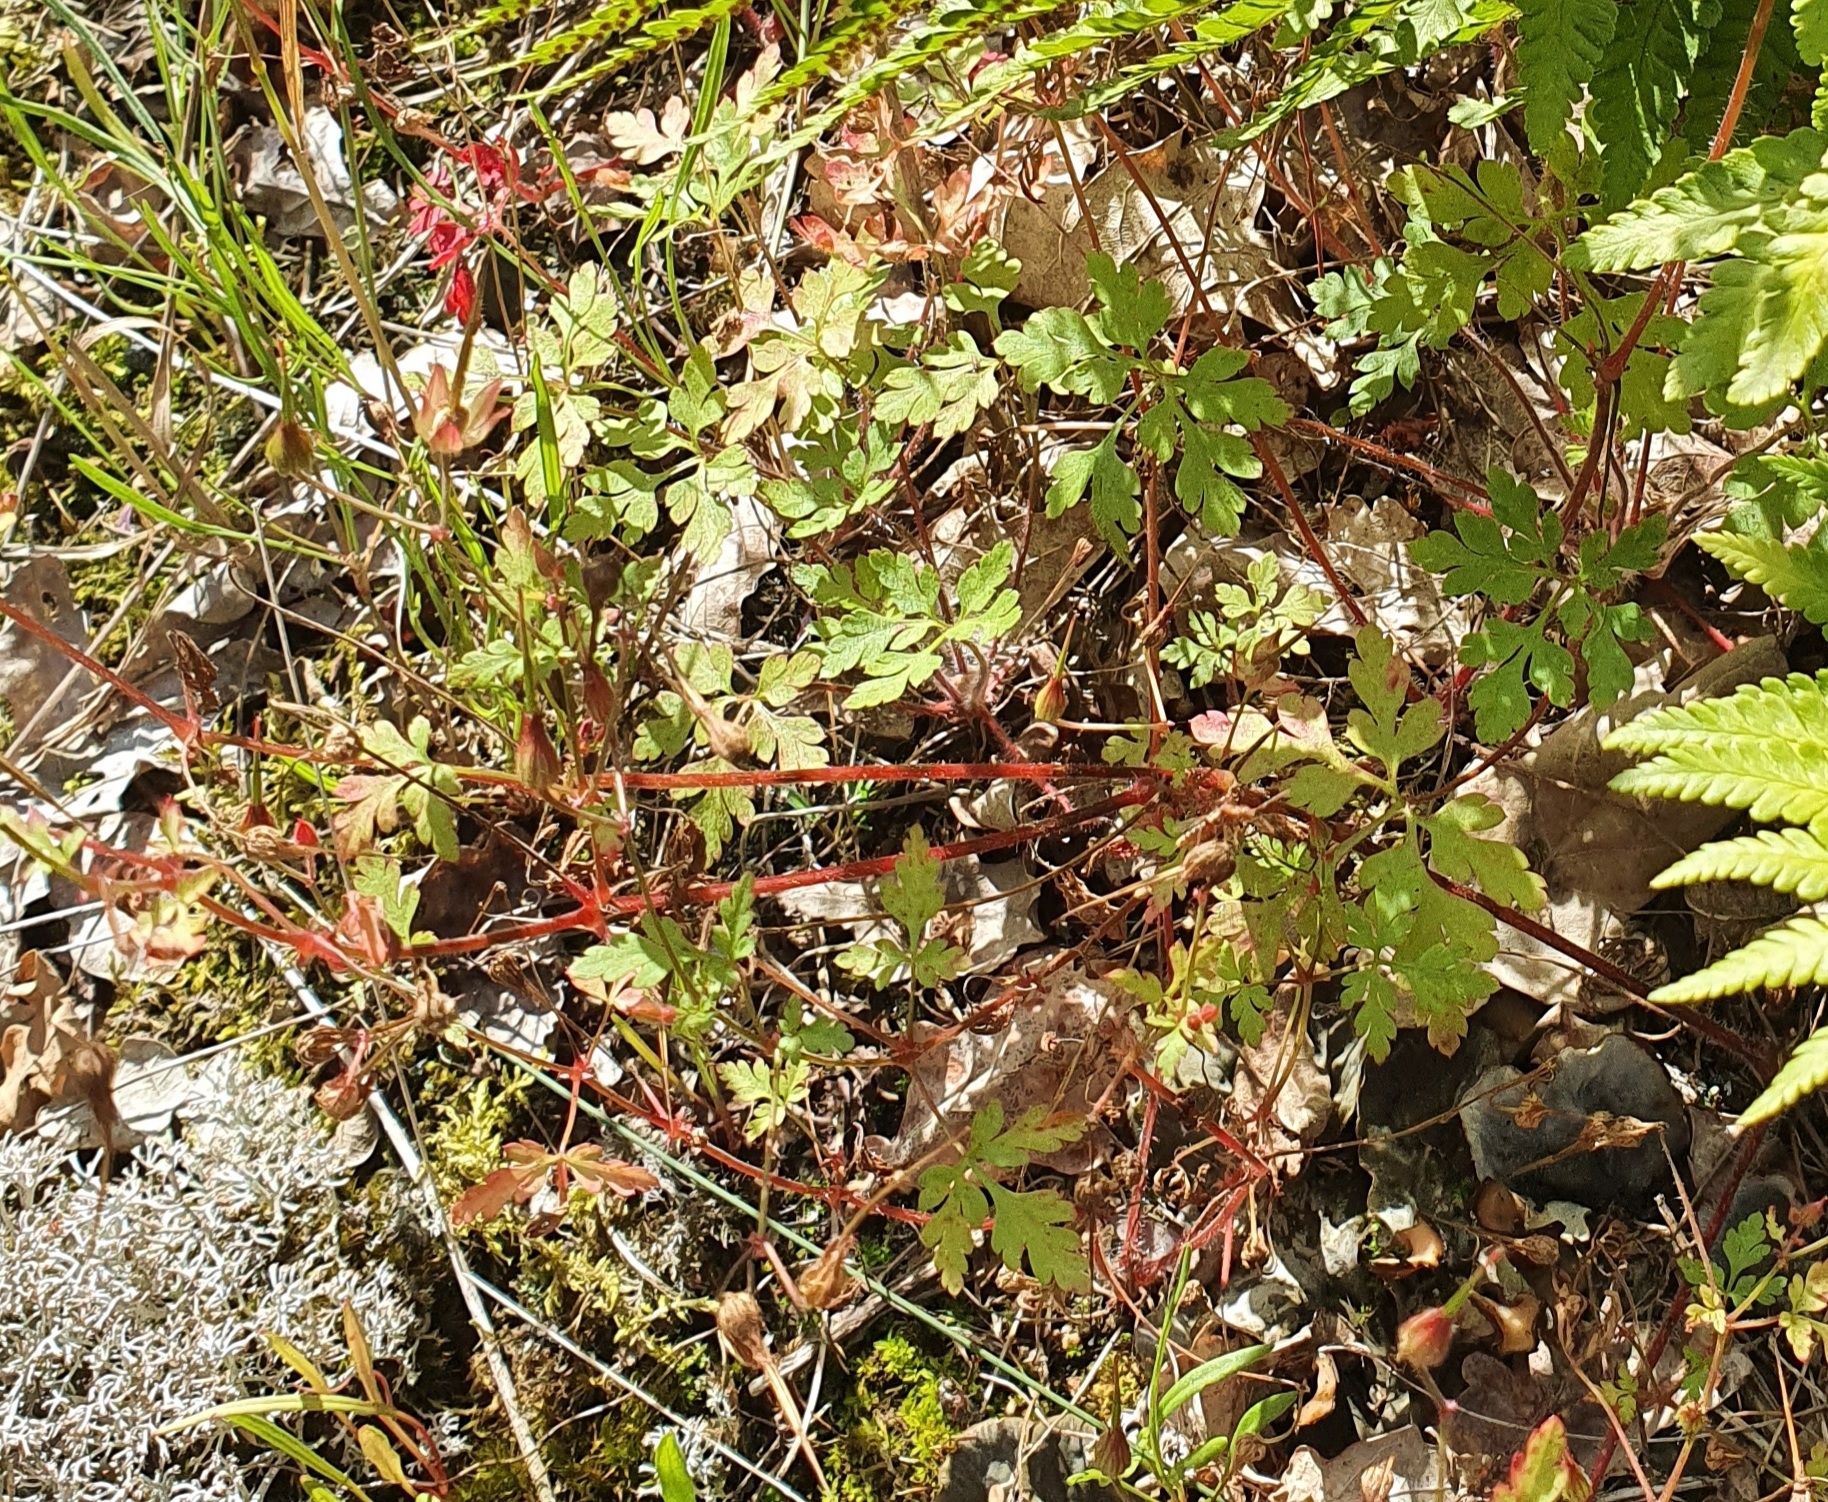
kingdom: Plantae
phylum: Tracheophyta
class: Magnoliopsida
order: Geraniales
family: Geraniaceae
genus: Geranium
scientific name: Geranium robertianum
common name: Herb-robert
